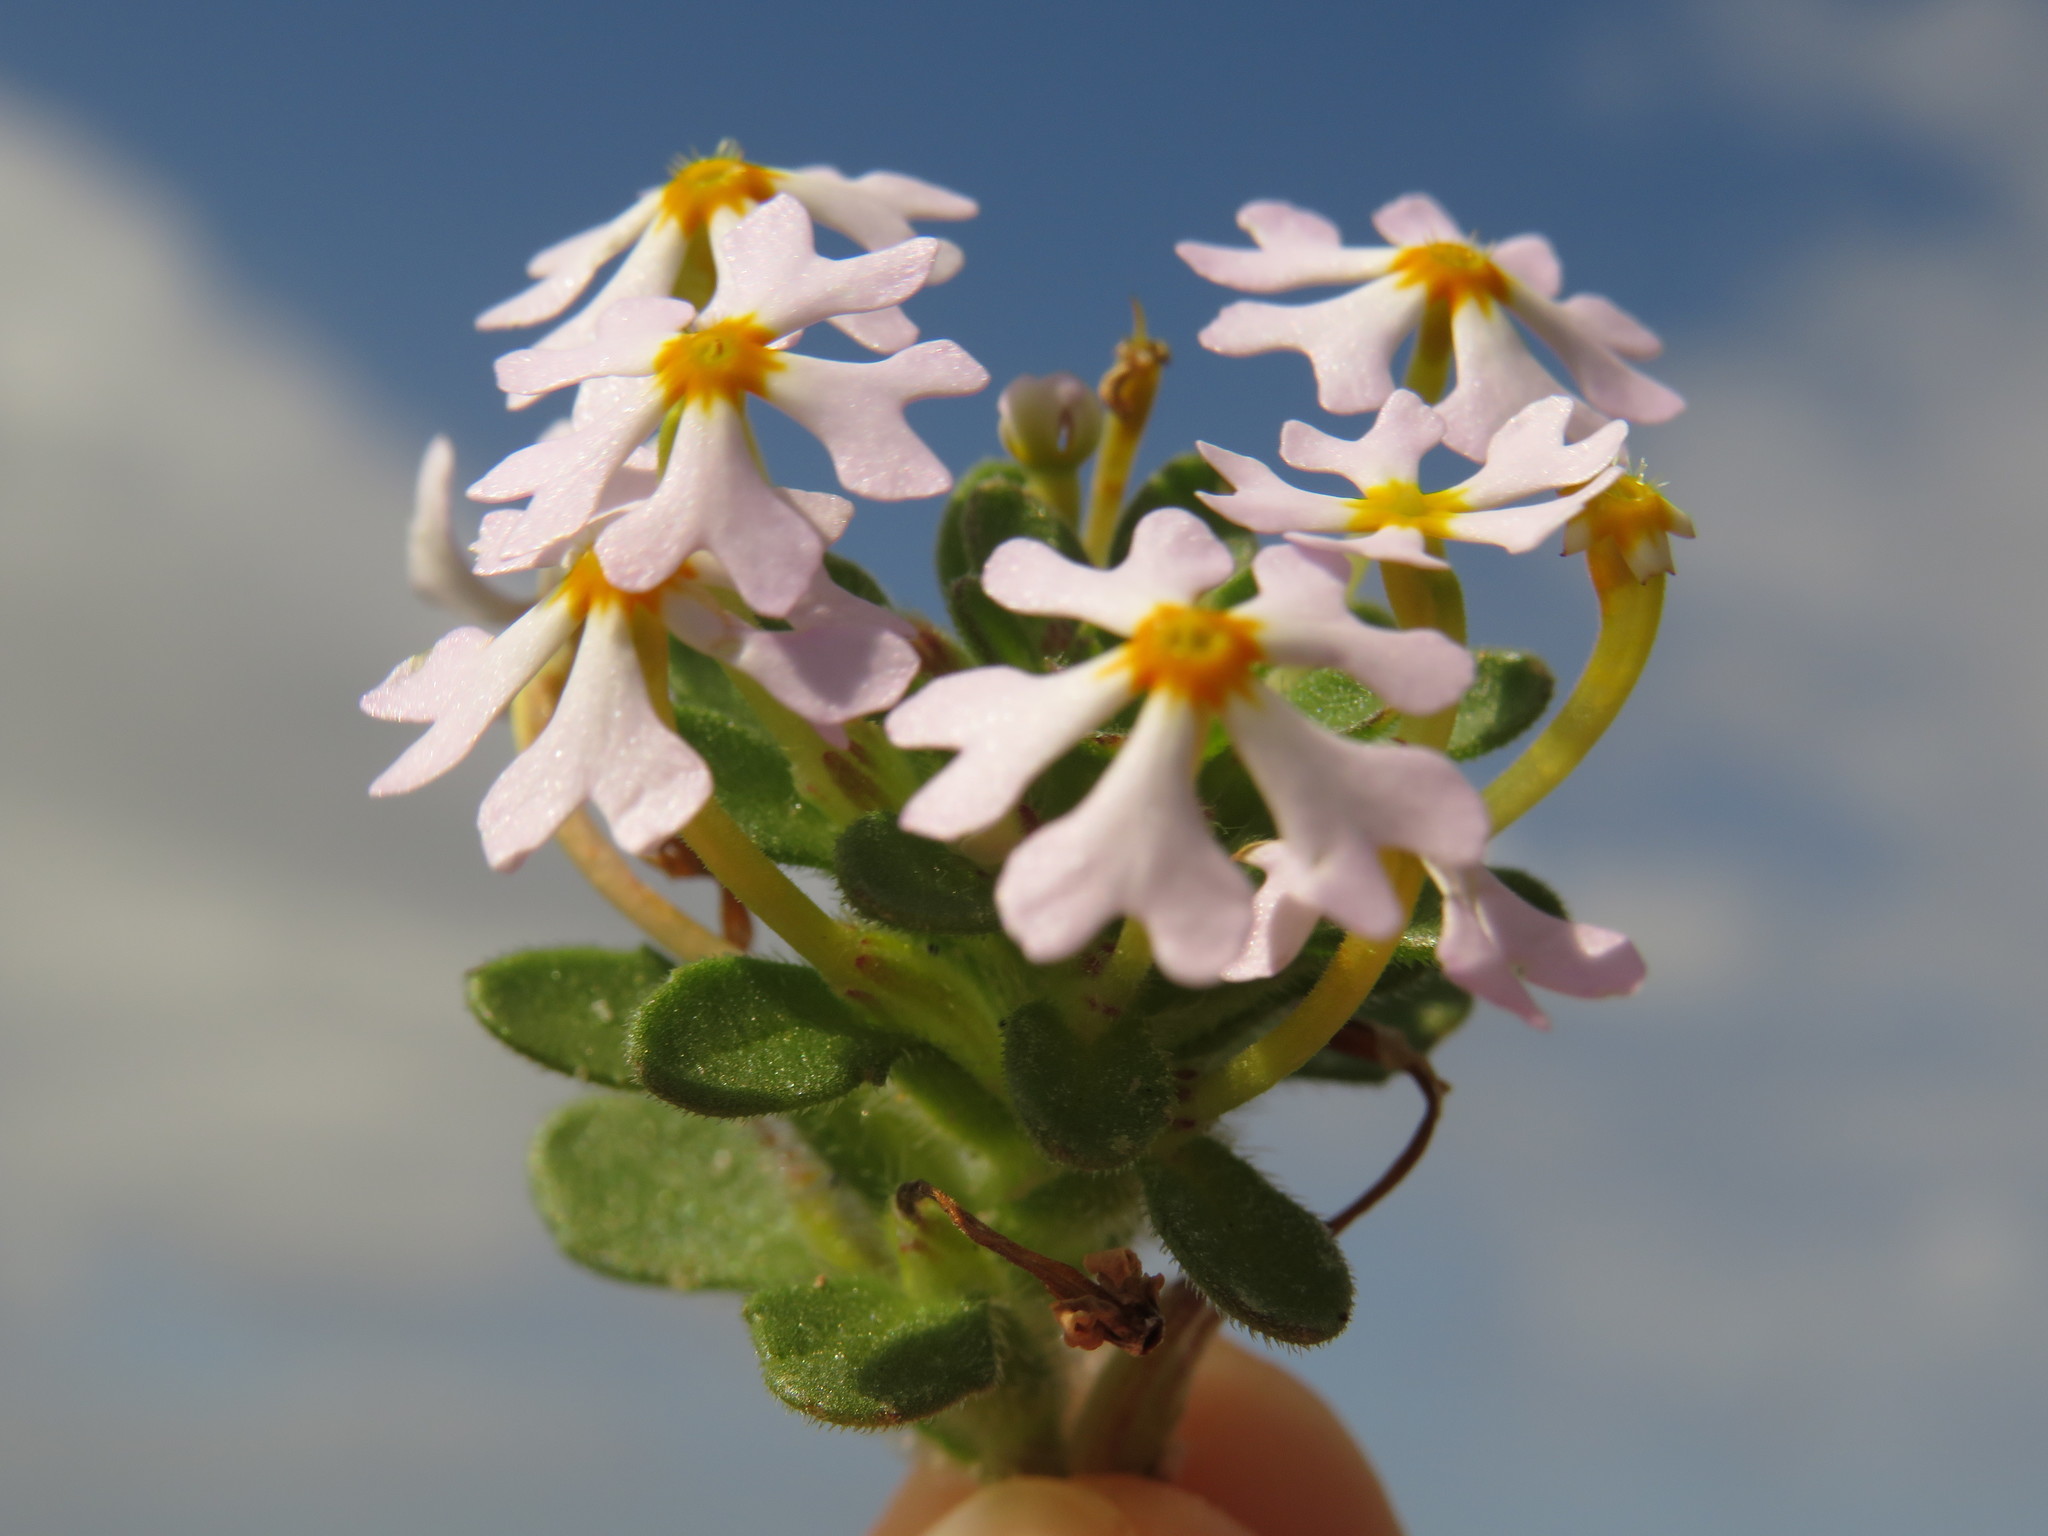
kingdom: Plantae
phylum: Tracheophyta
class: Magnoliopsida
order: Lamiales
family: Scrophulariaceae
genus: Zaluzianskya
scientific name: Zaluzianskya villosa
